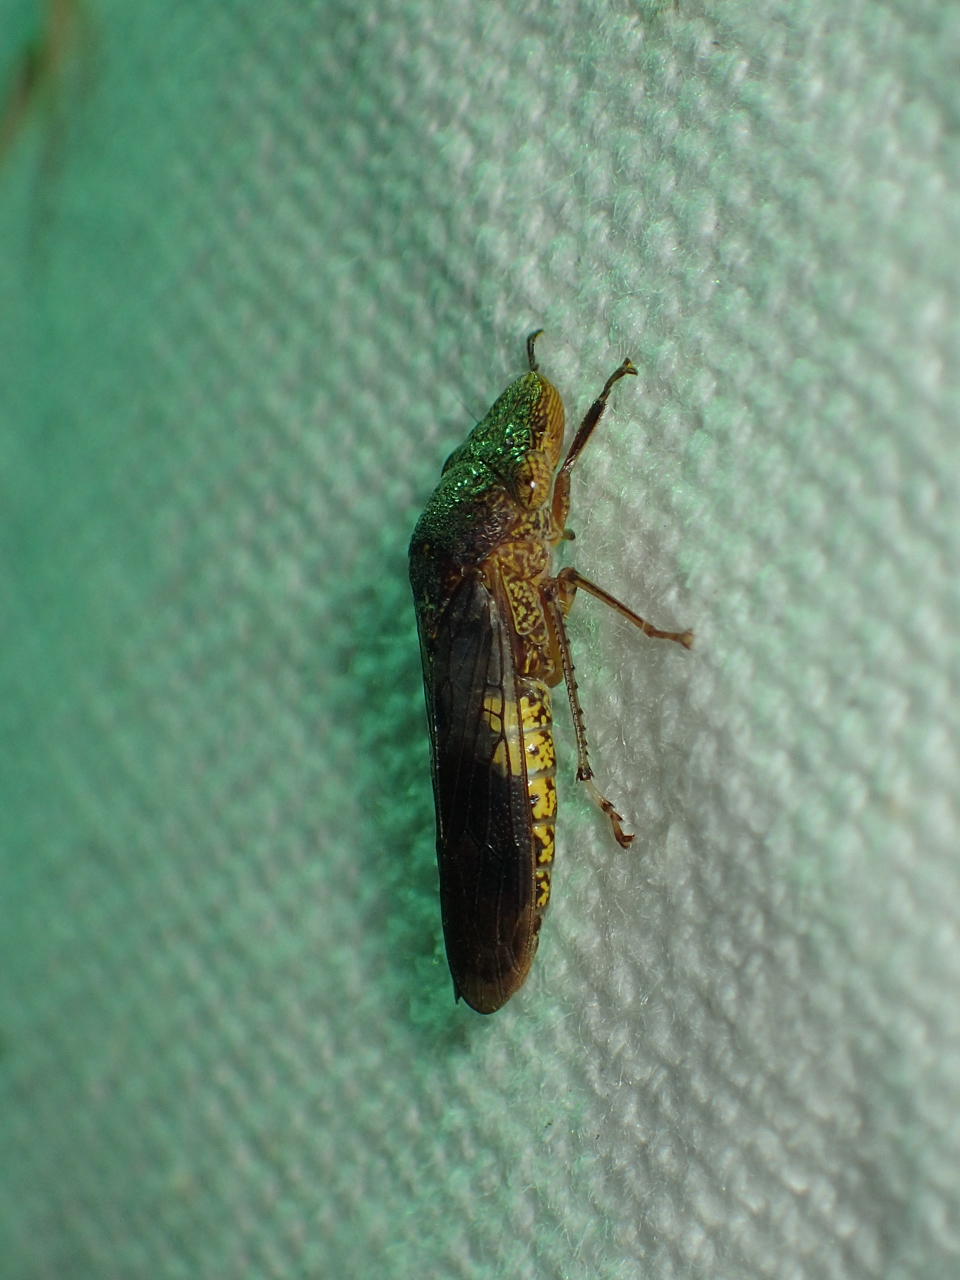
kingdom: Animalia
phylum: Arthropoda
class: Insecta
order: Hemiptera
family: Cicadellidae
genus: Homalodisca
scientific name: Homalodisca vitripennis
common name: Glassy-winged sharpshooter
